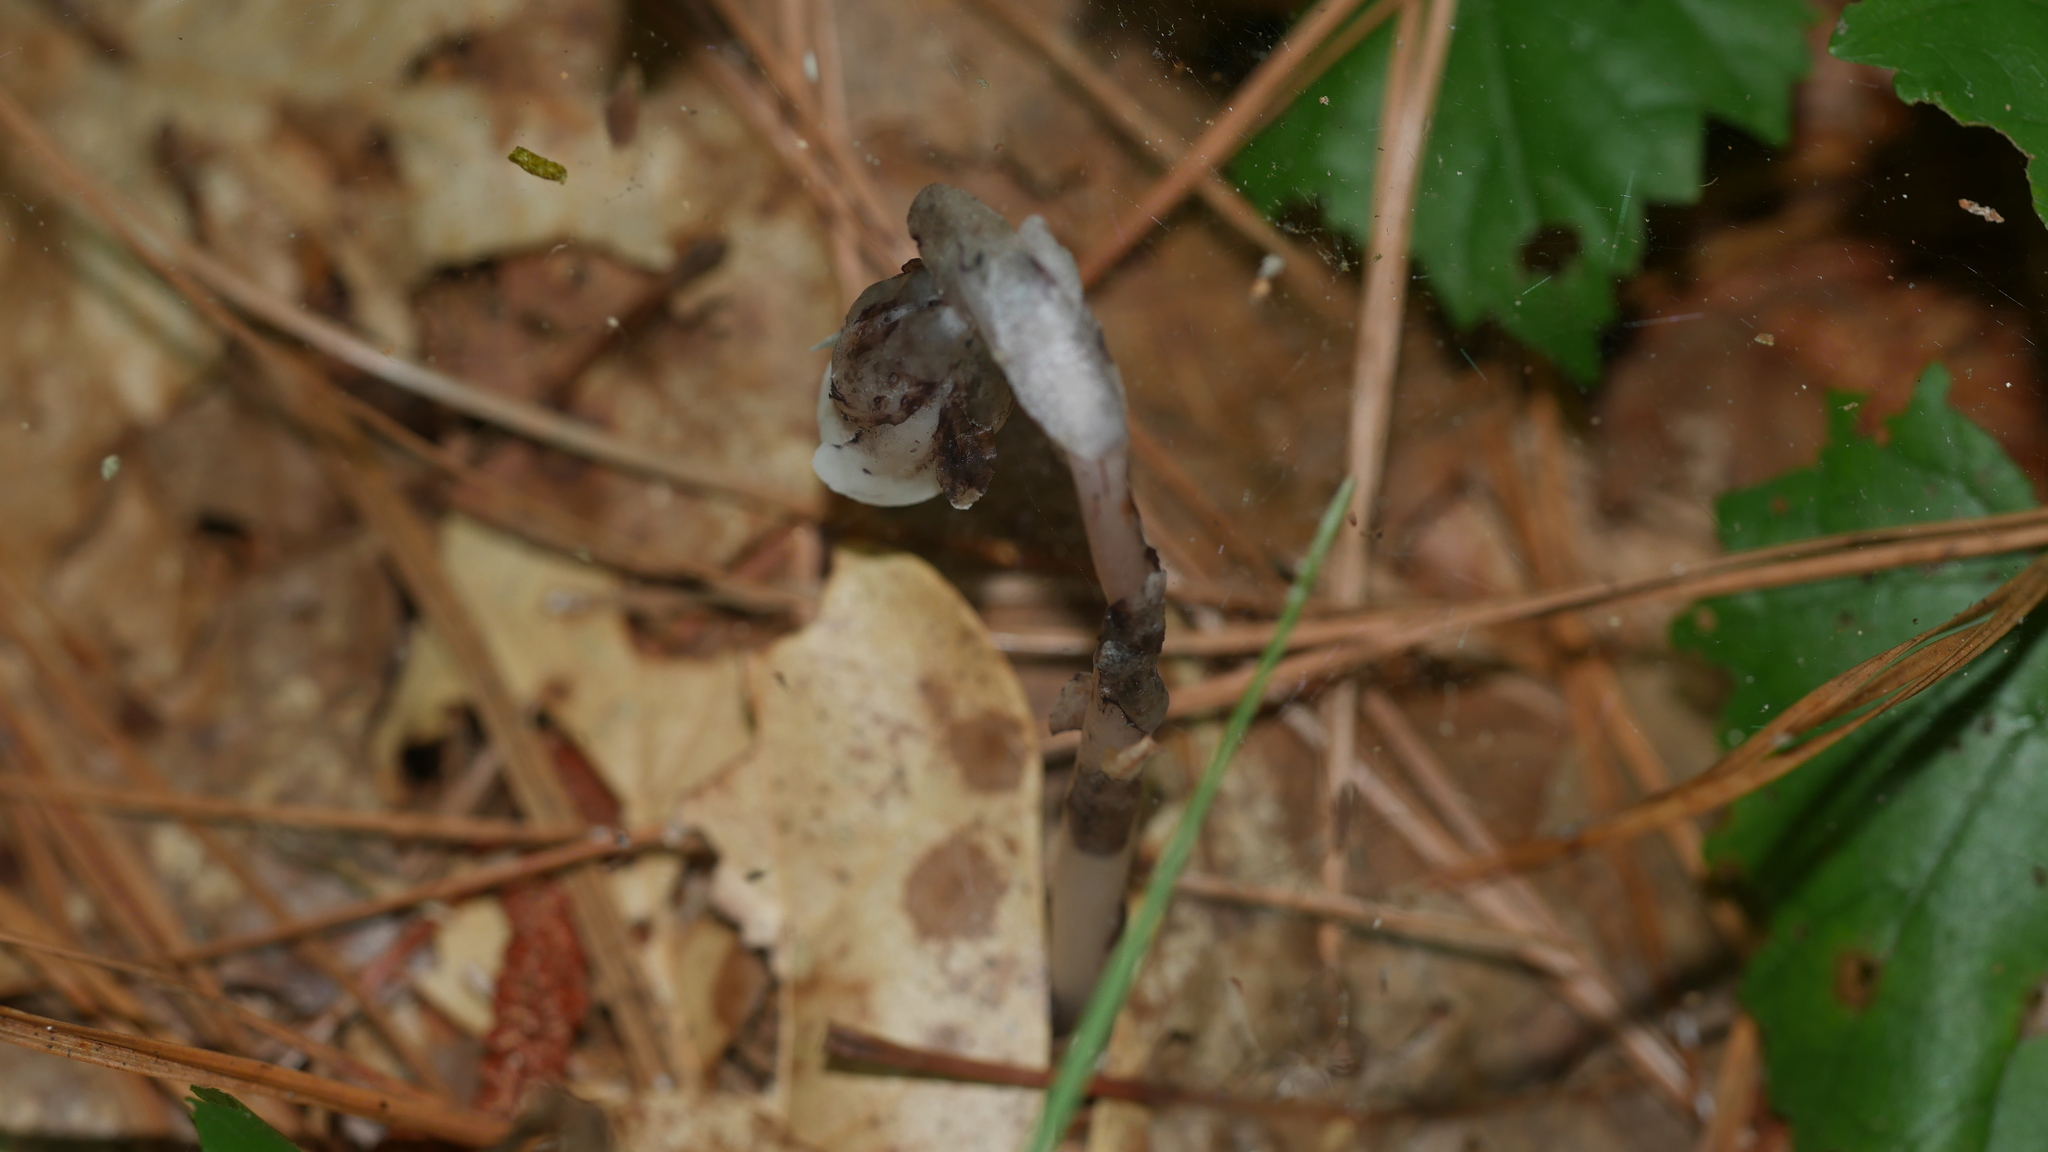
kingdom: Plantae
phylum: Tracheophyta
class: Magnoliopsida
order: Ericales
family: Ericaceae
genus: Monotropa
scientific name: Monotropa uniflora
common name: Convulsion root
